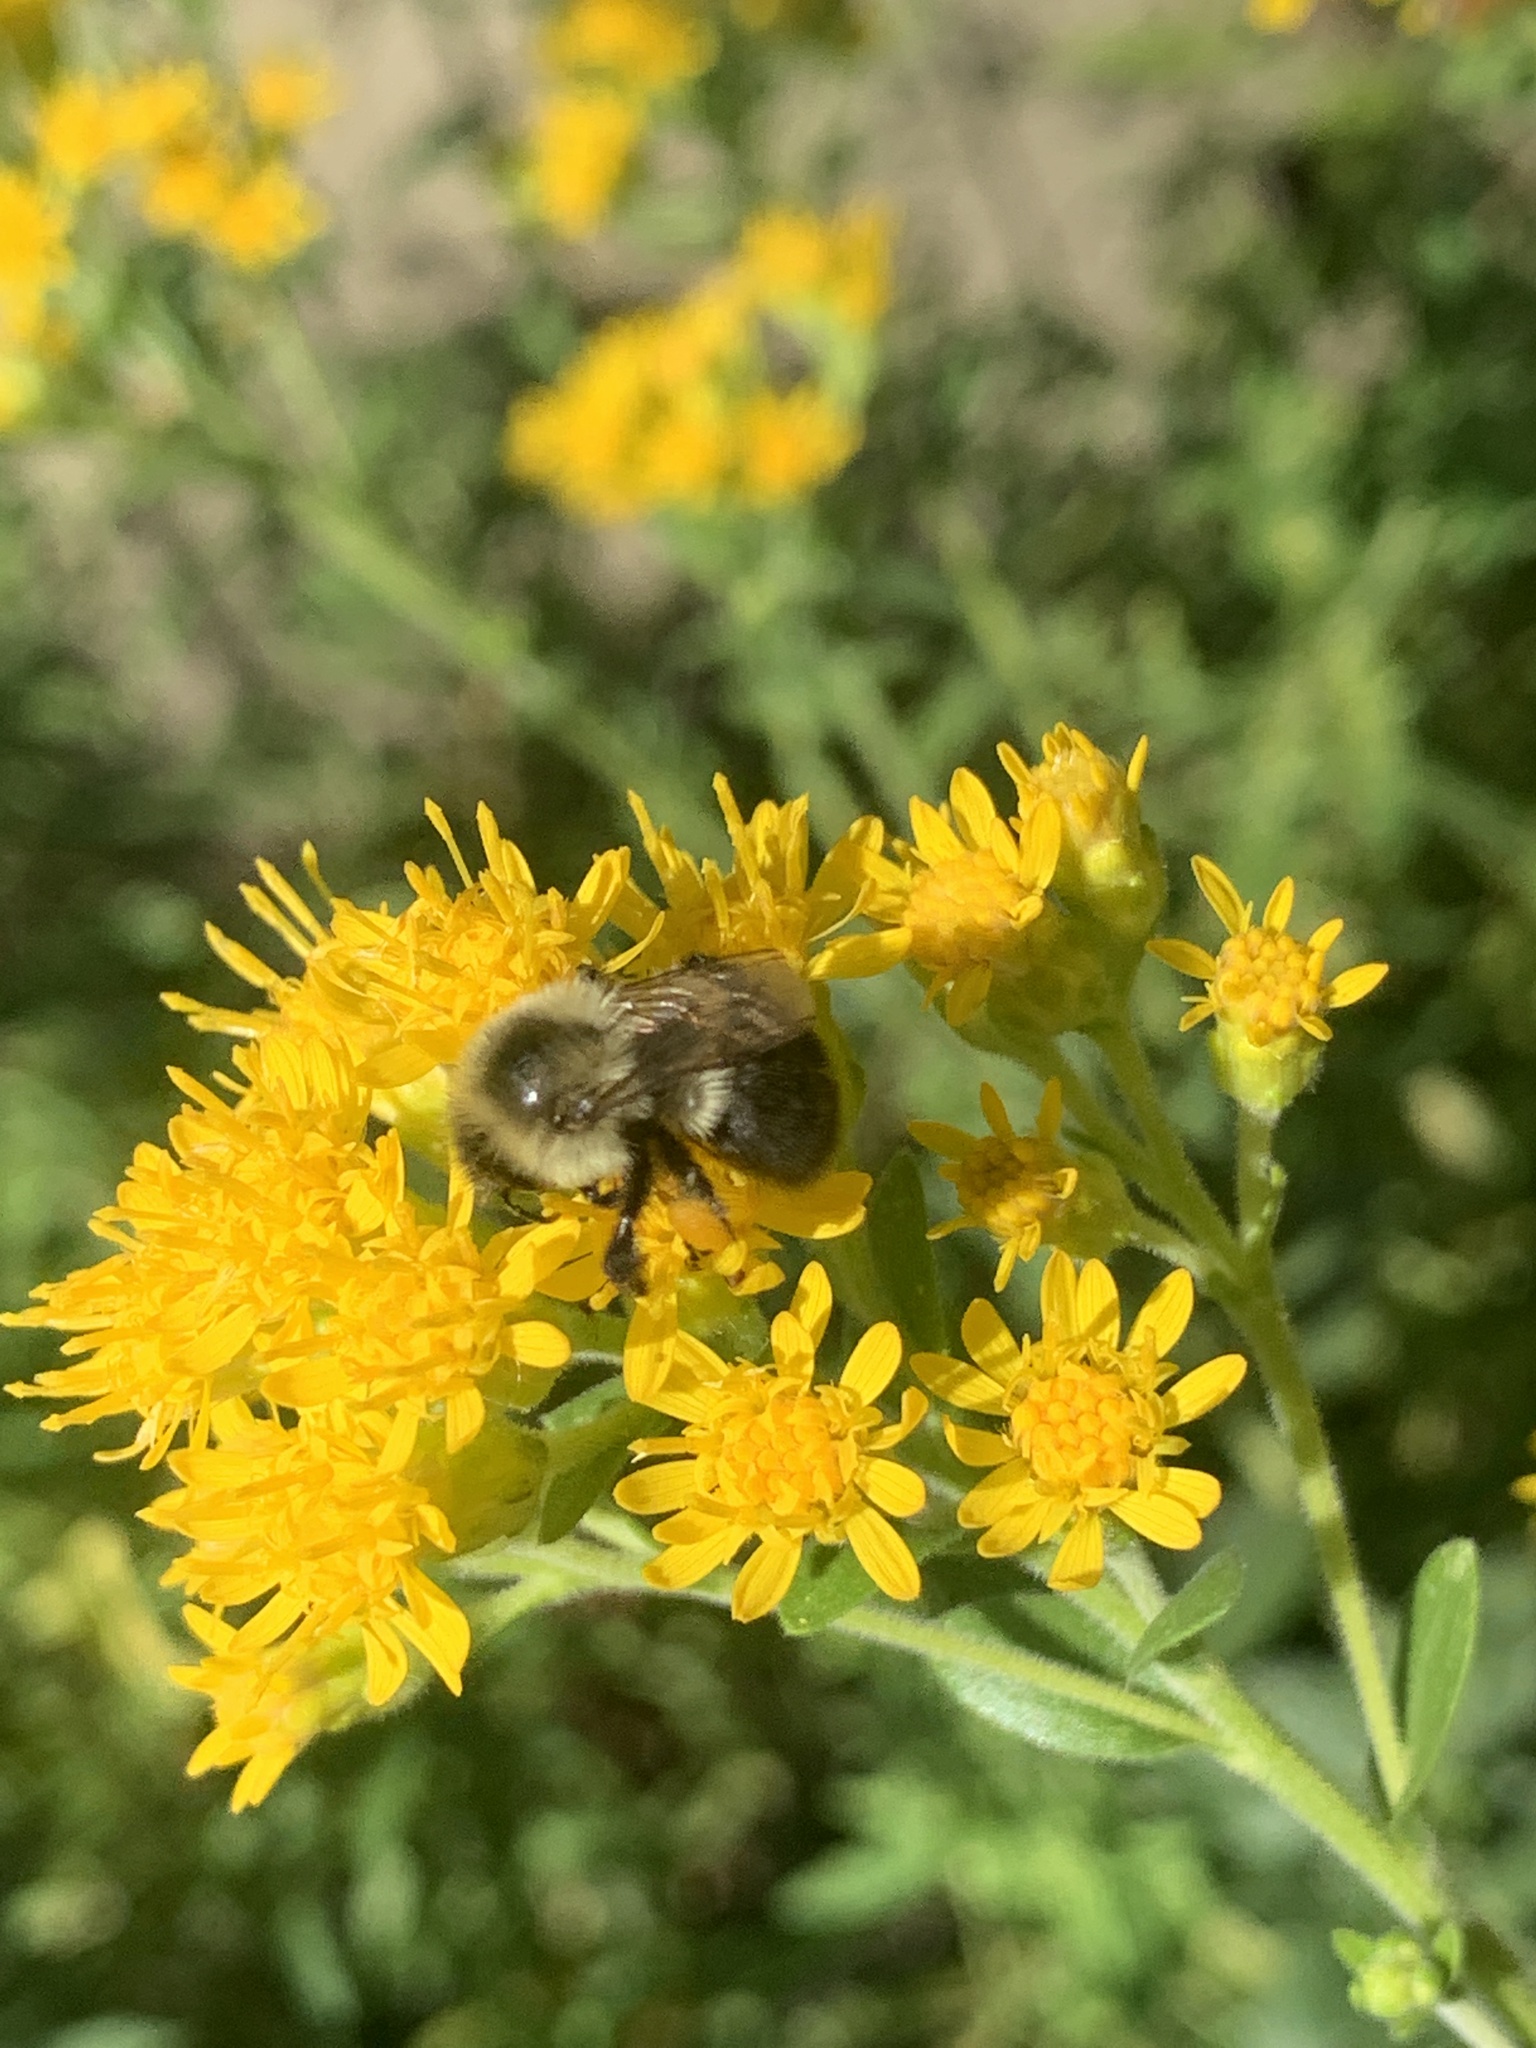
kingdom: Animalia
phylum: Arthropoda
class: Insecta
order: Hymenoptera
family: Apidae
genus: Bombus
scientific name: Bombus impatiens
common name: Common eastern bumble bee
